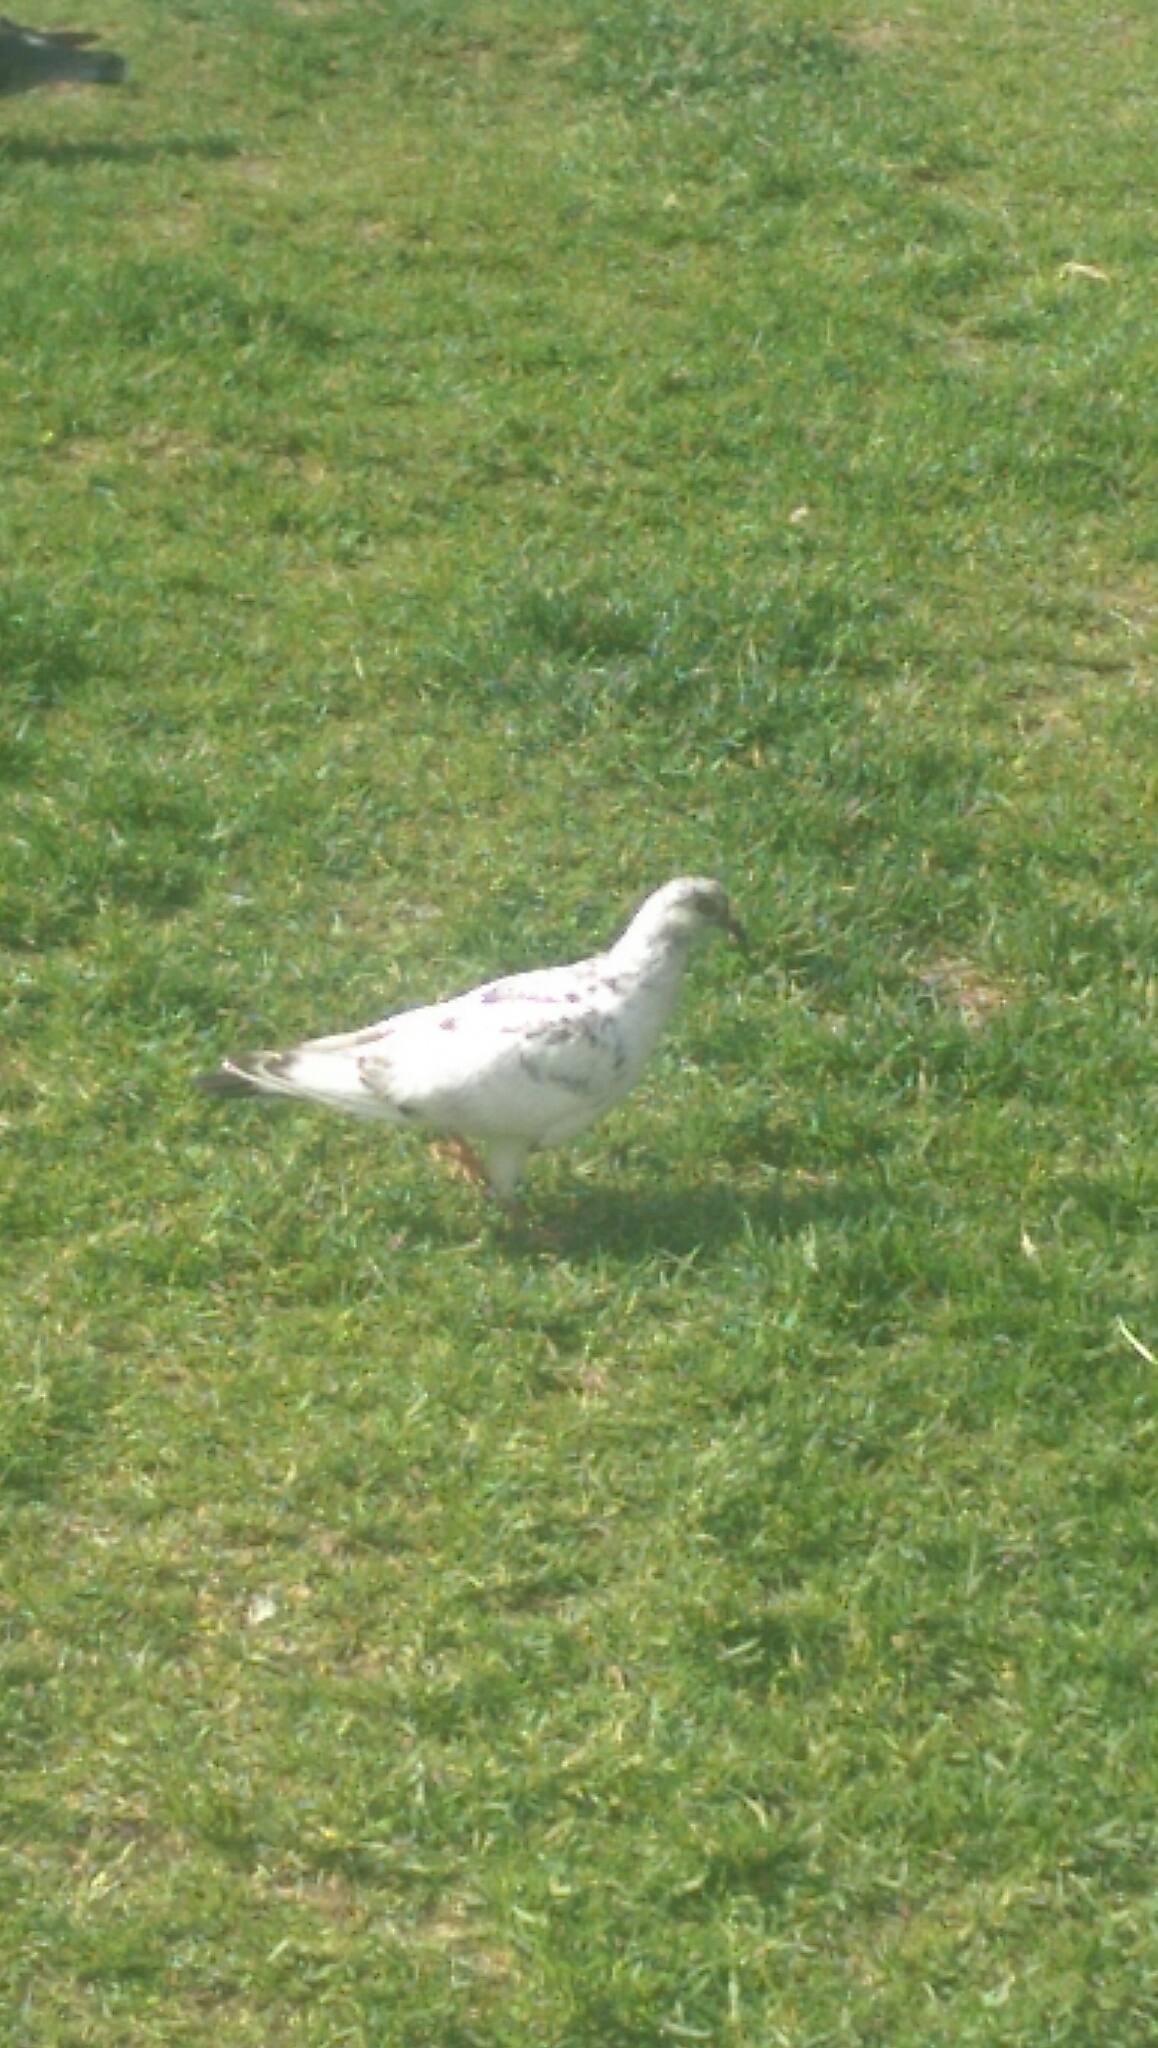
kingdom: Animalia
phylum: Chordata
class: Aves
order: Columbiformes
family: Columbidae
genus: Columba
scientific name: Columba livia
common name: Rock pigeon
